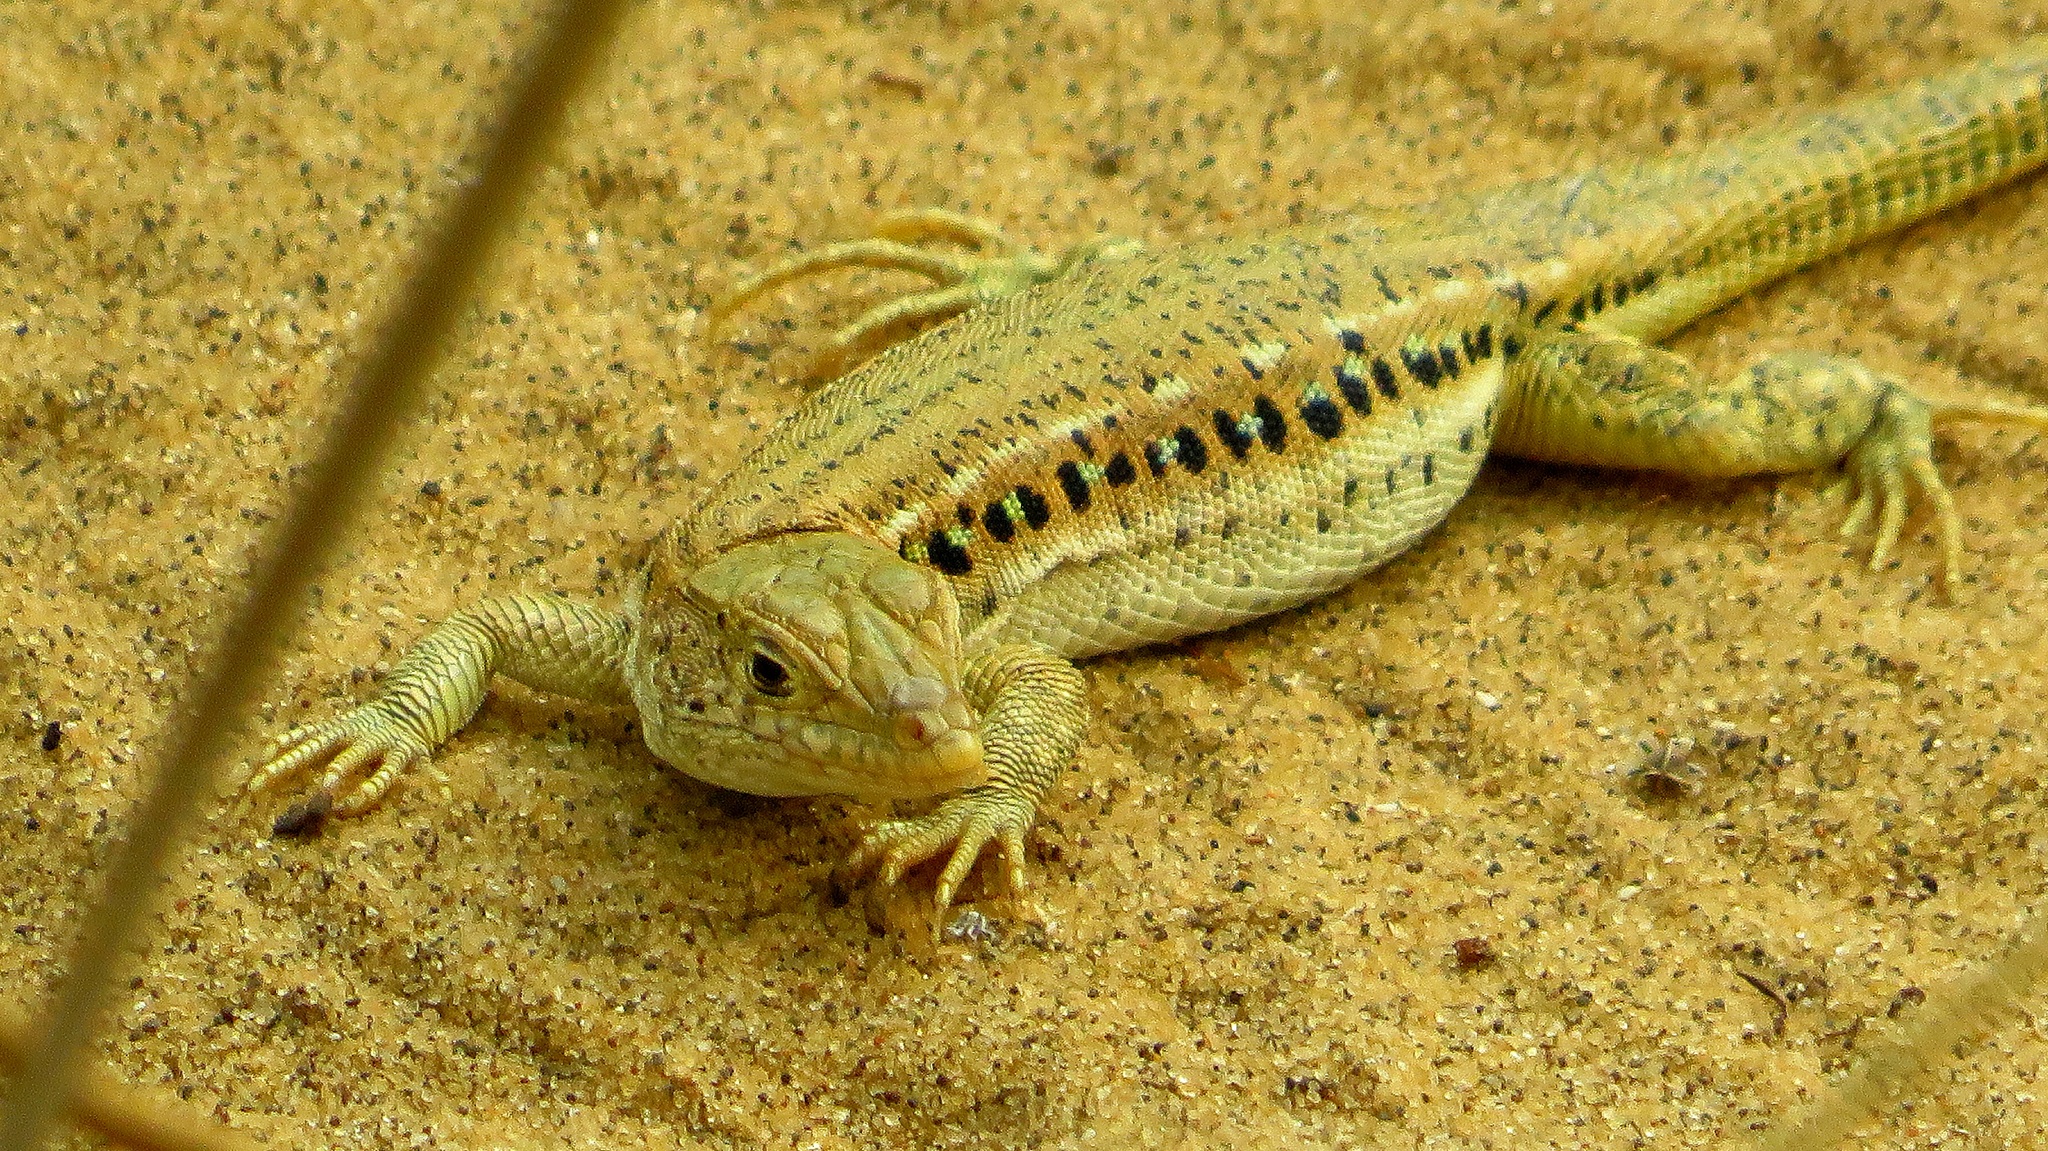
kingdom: Animalia
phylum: Chordata
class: Squamata
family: Lacertidae
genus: Eremias
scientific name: Eremias velox
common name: Central asian racerunner
